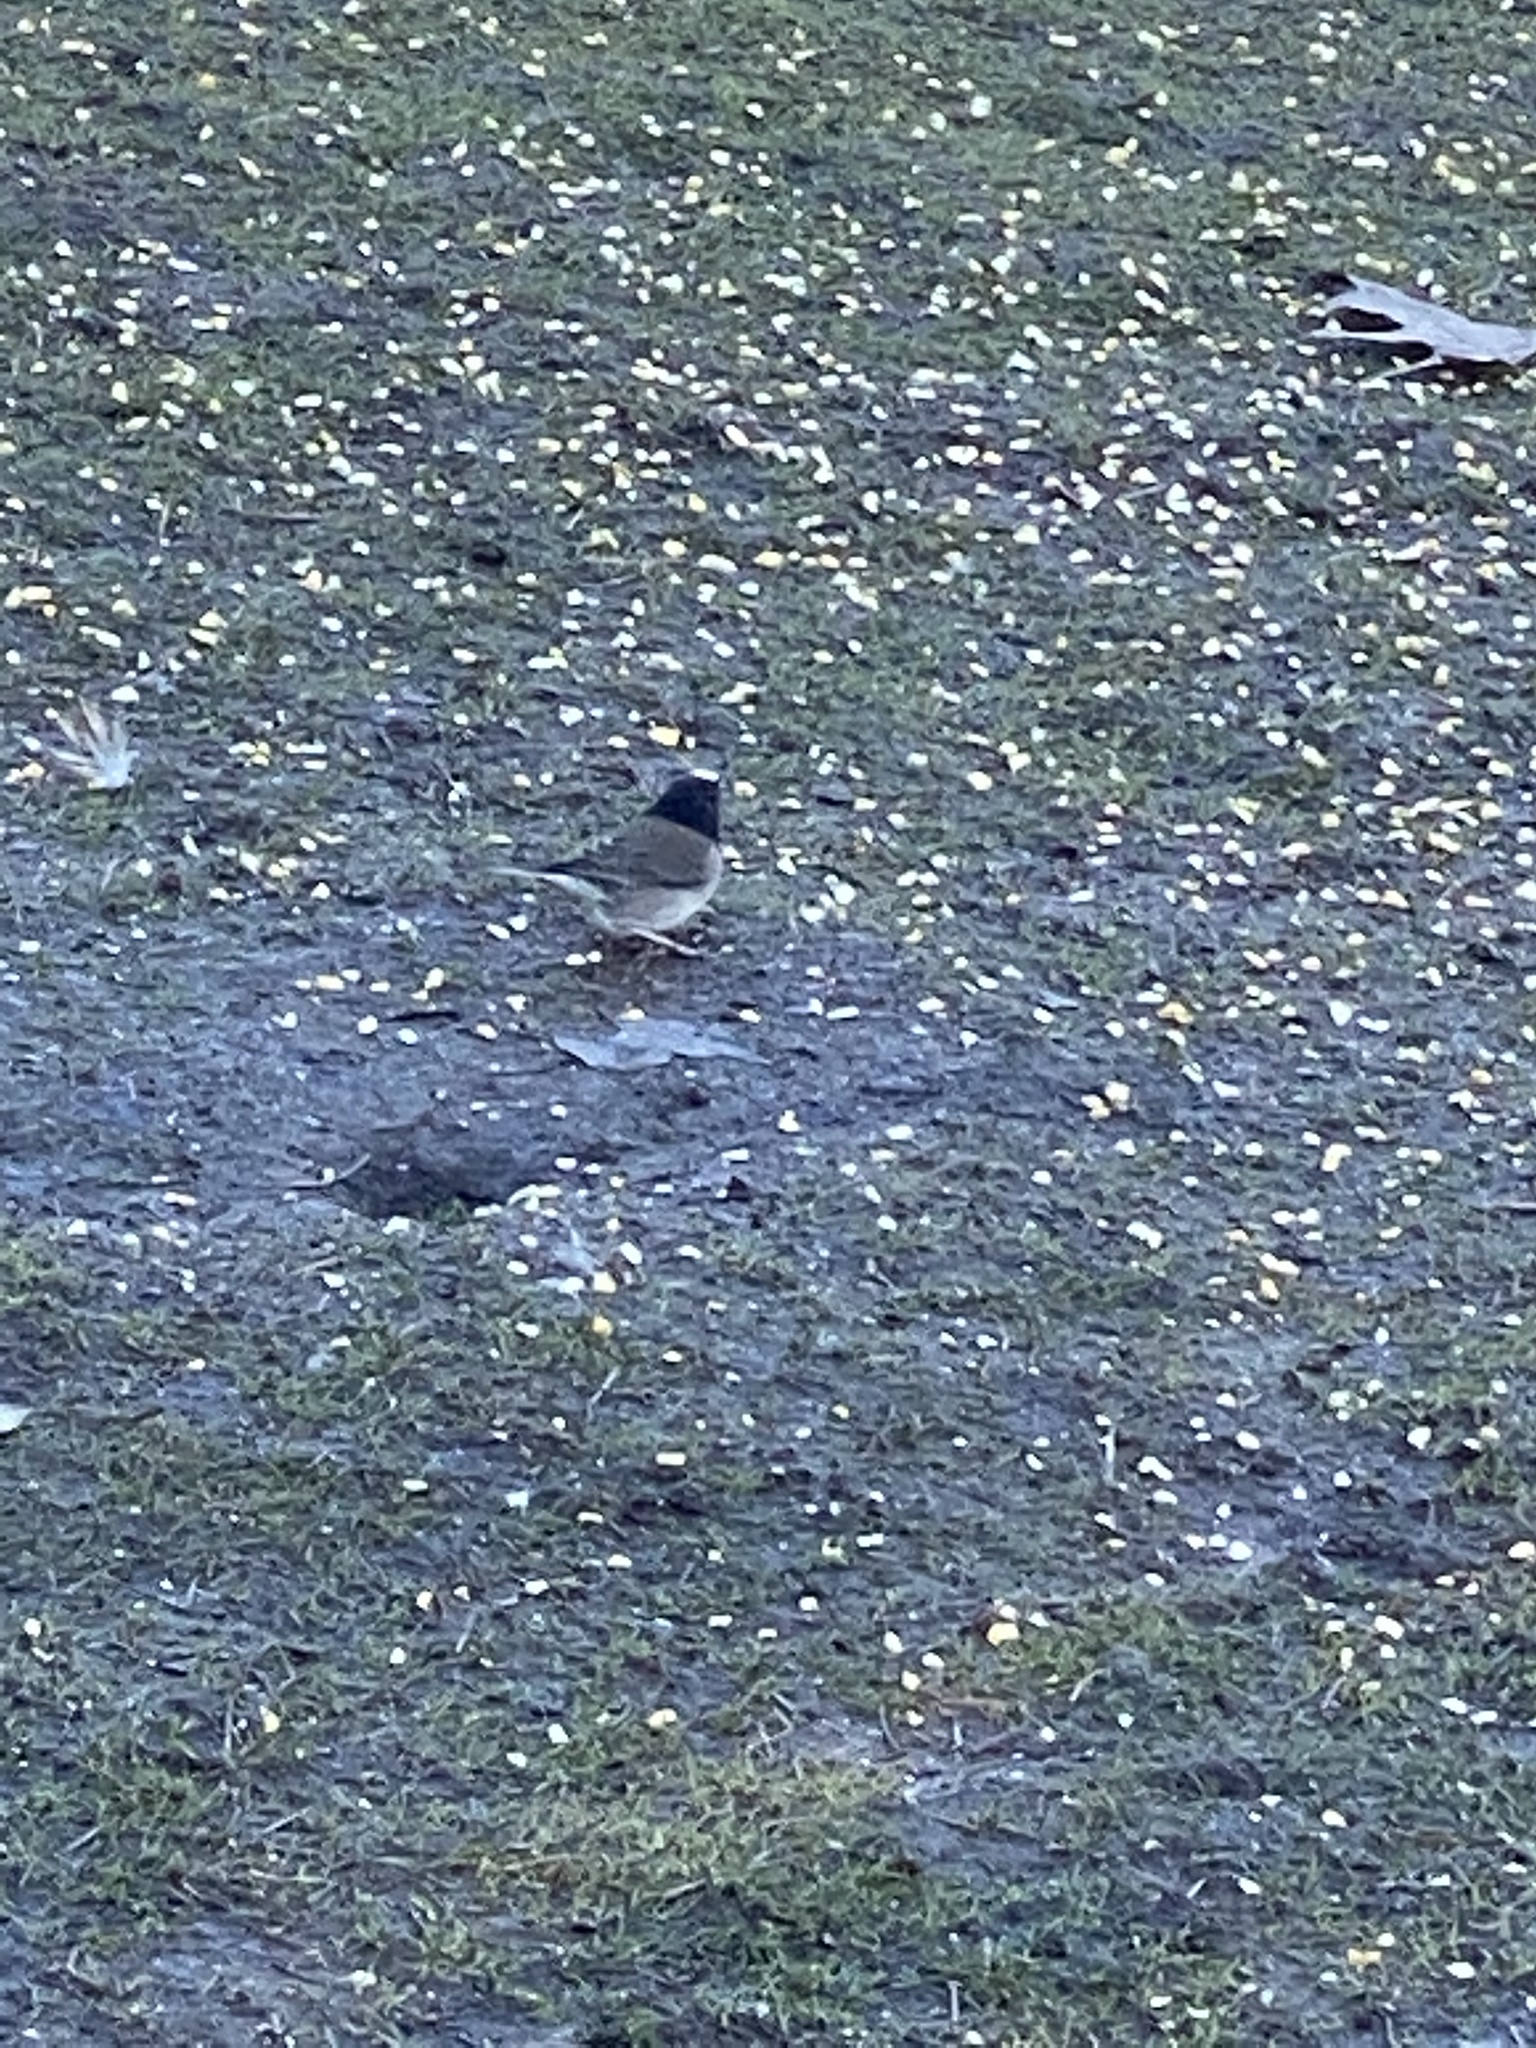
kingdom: Animalia
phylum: Chordata
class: Aves
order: Passeriformes
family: Passerellidae
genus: Junco
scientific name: Junco hyemalis
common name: Dark-eyed junco
